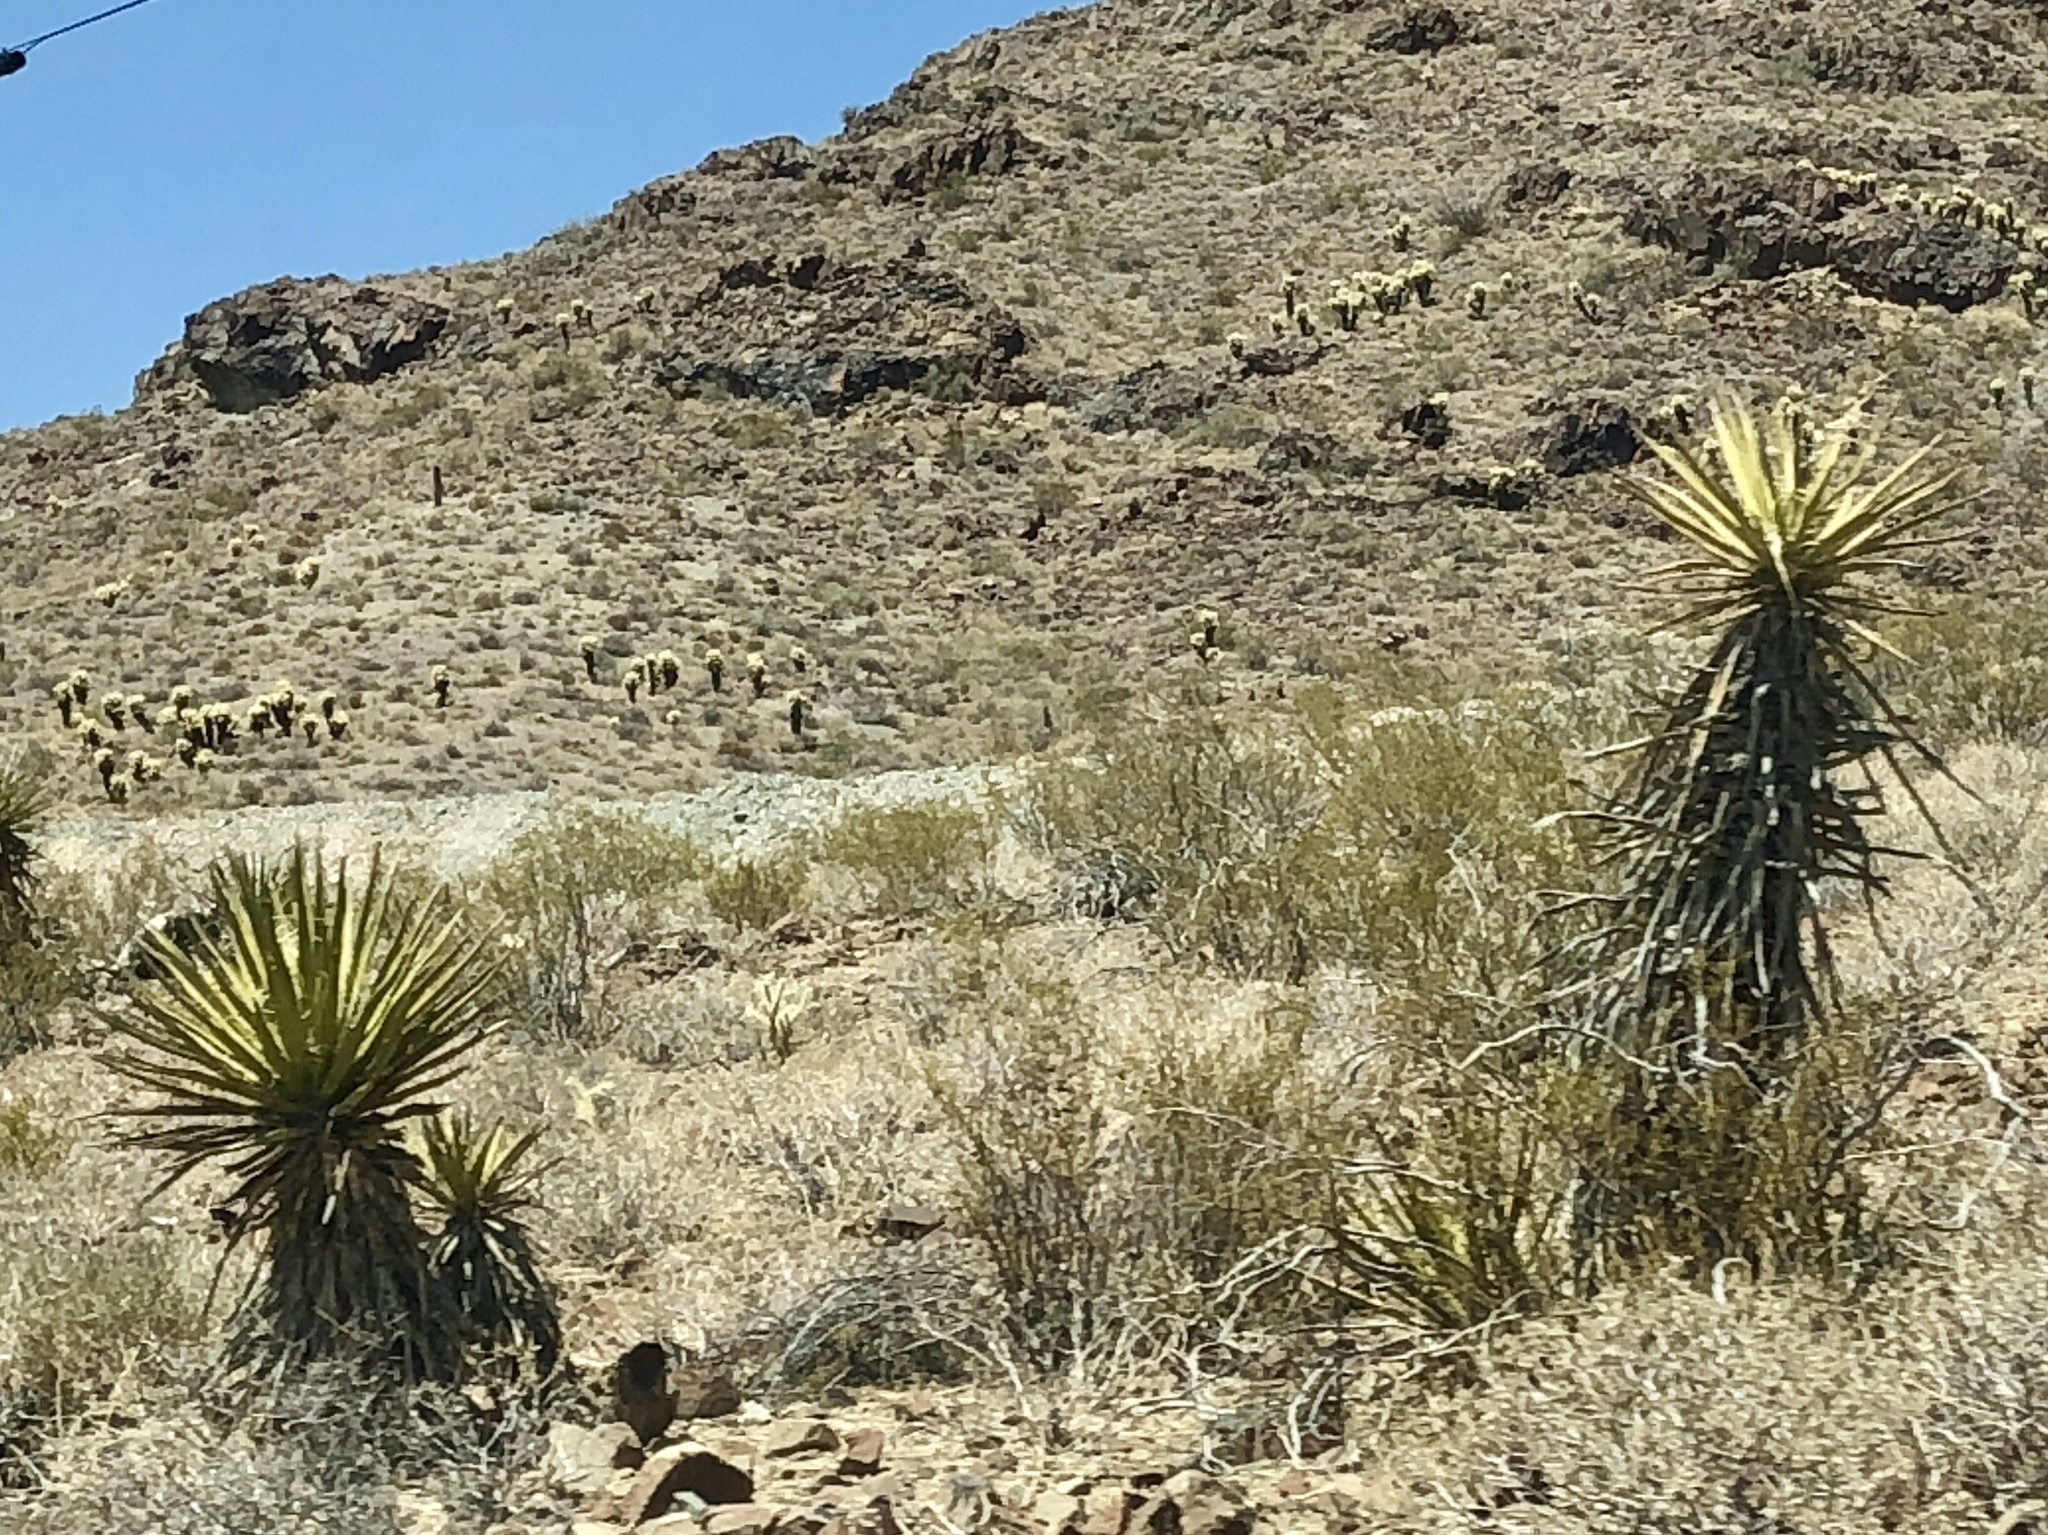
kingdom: Plantae
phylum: Tracheophyta
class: Liliopsida
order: Asparagales
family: Asparagaceae
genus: Yucca
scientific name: Yucca schidigera
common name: Mojave yucca
